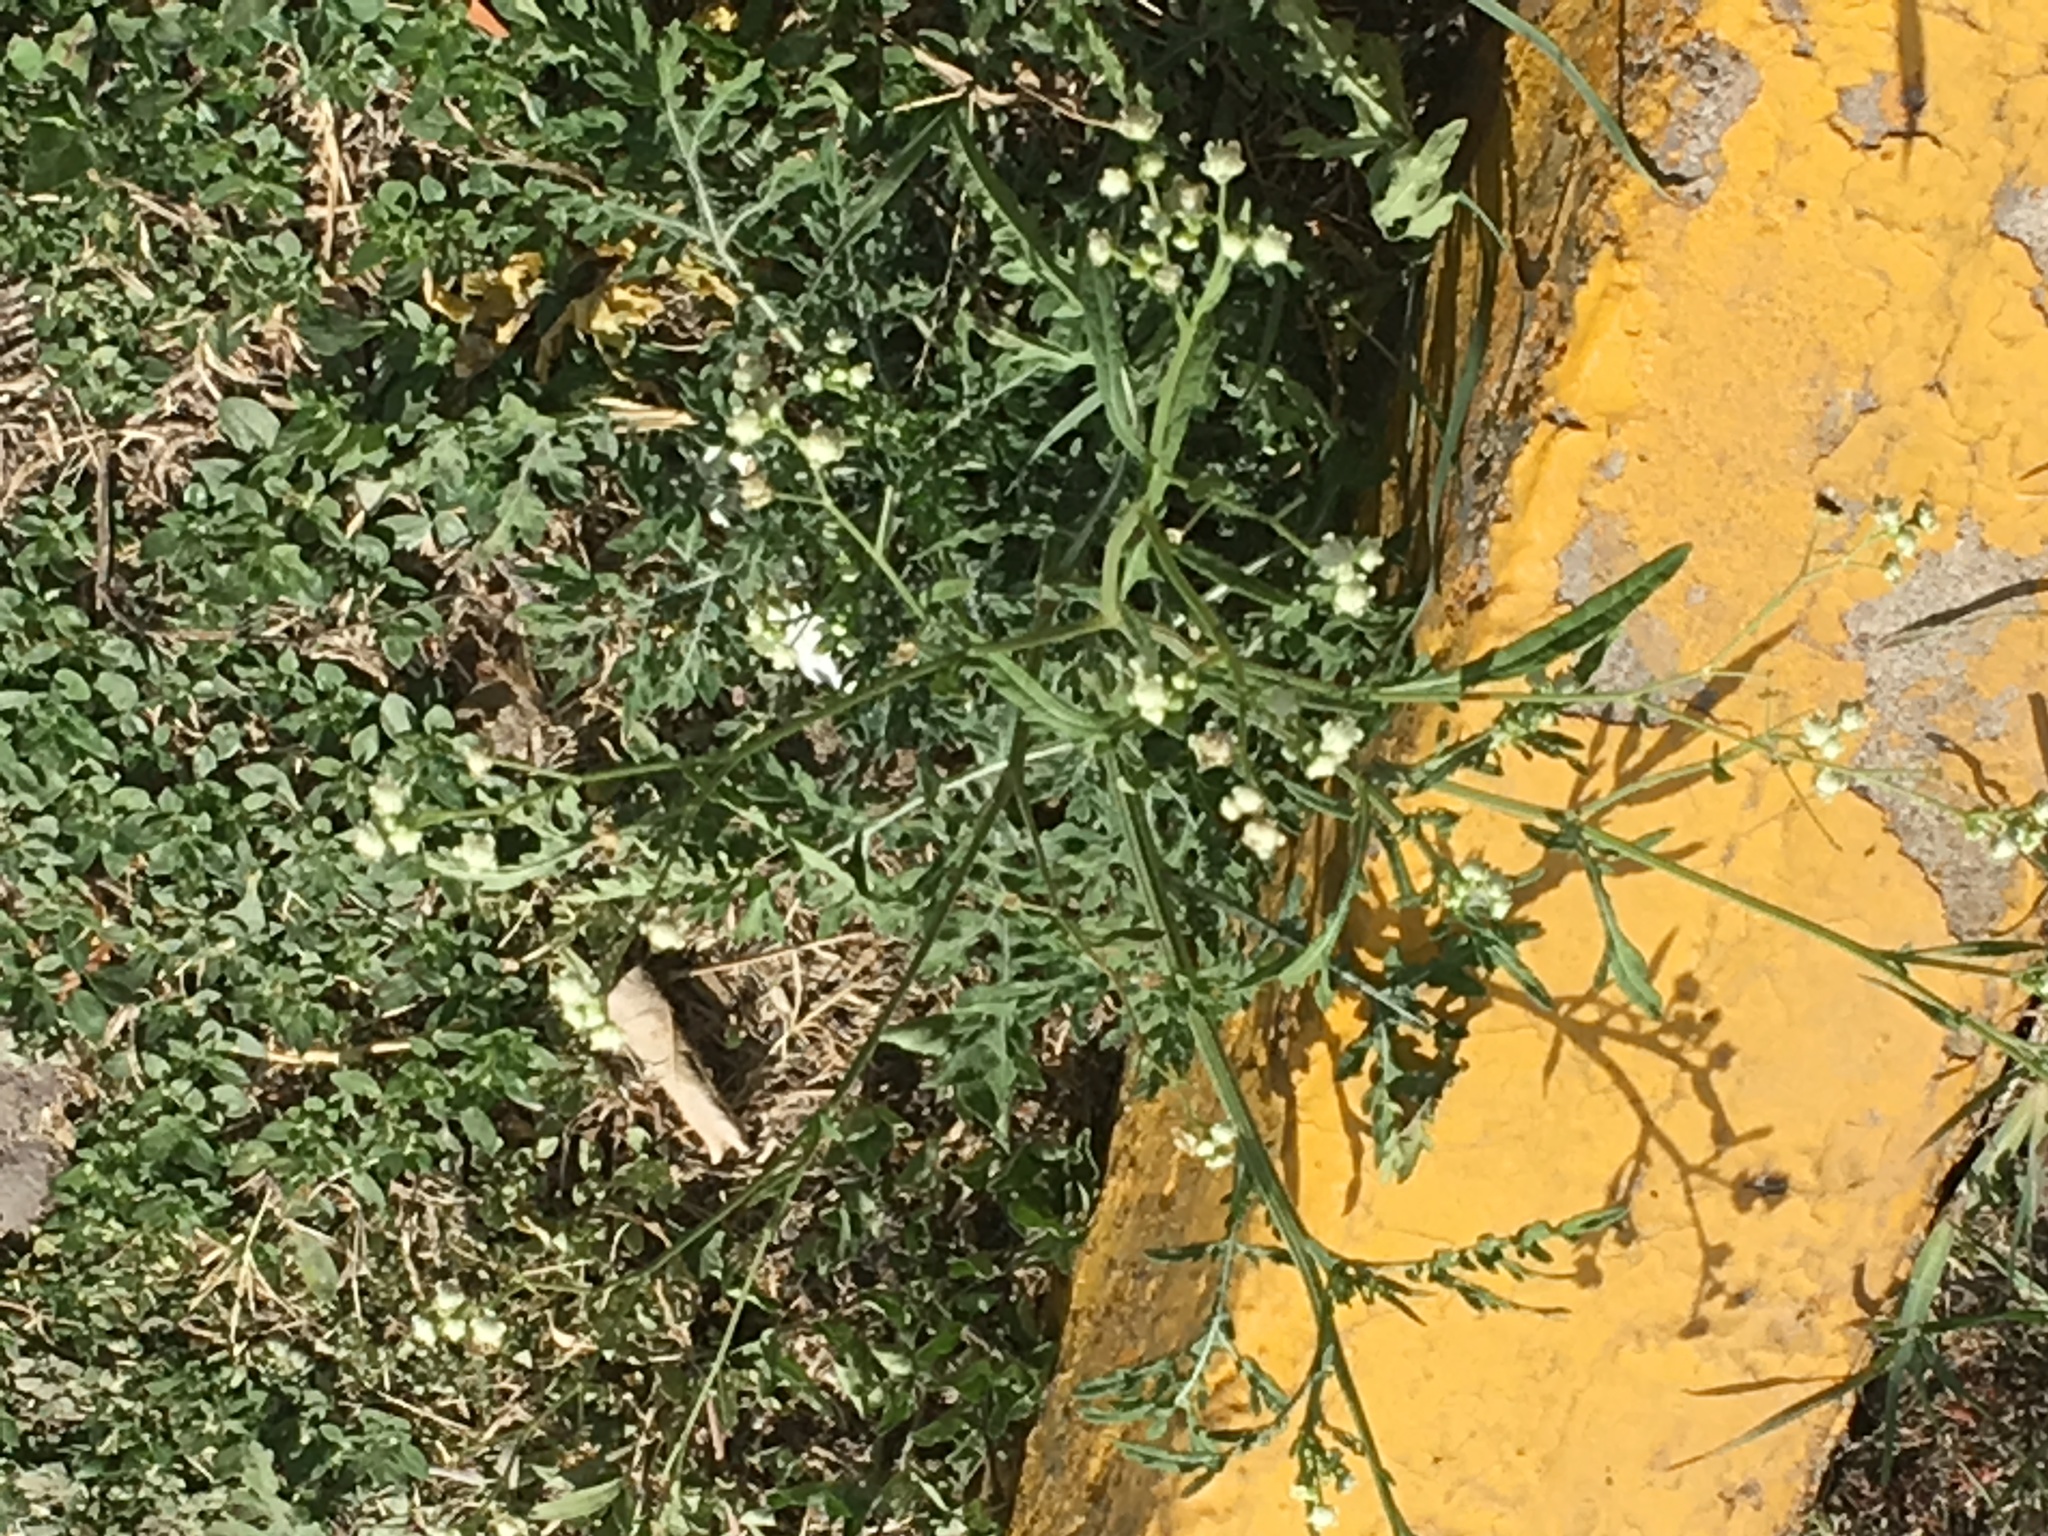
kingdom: Plantae
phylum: Tracheophyta
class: Magnoliopsida
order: Asterales
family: Asteraceae
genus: Parthenium
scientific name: Parthenium hysterophorus
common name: Santa maria feverfew
